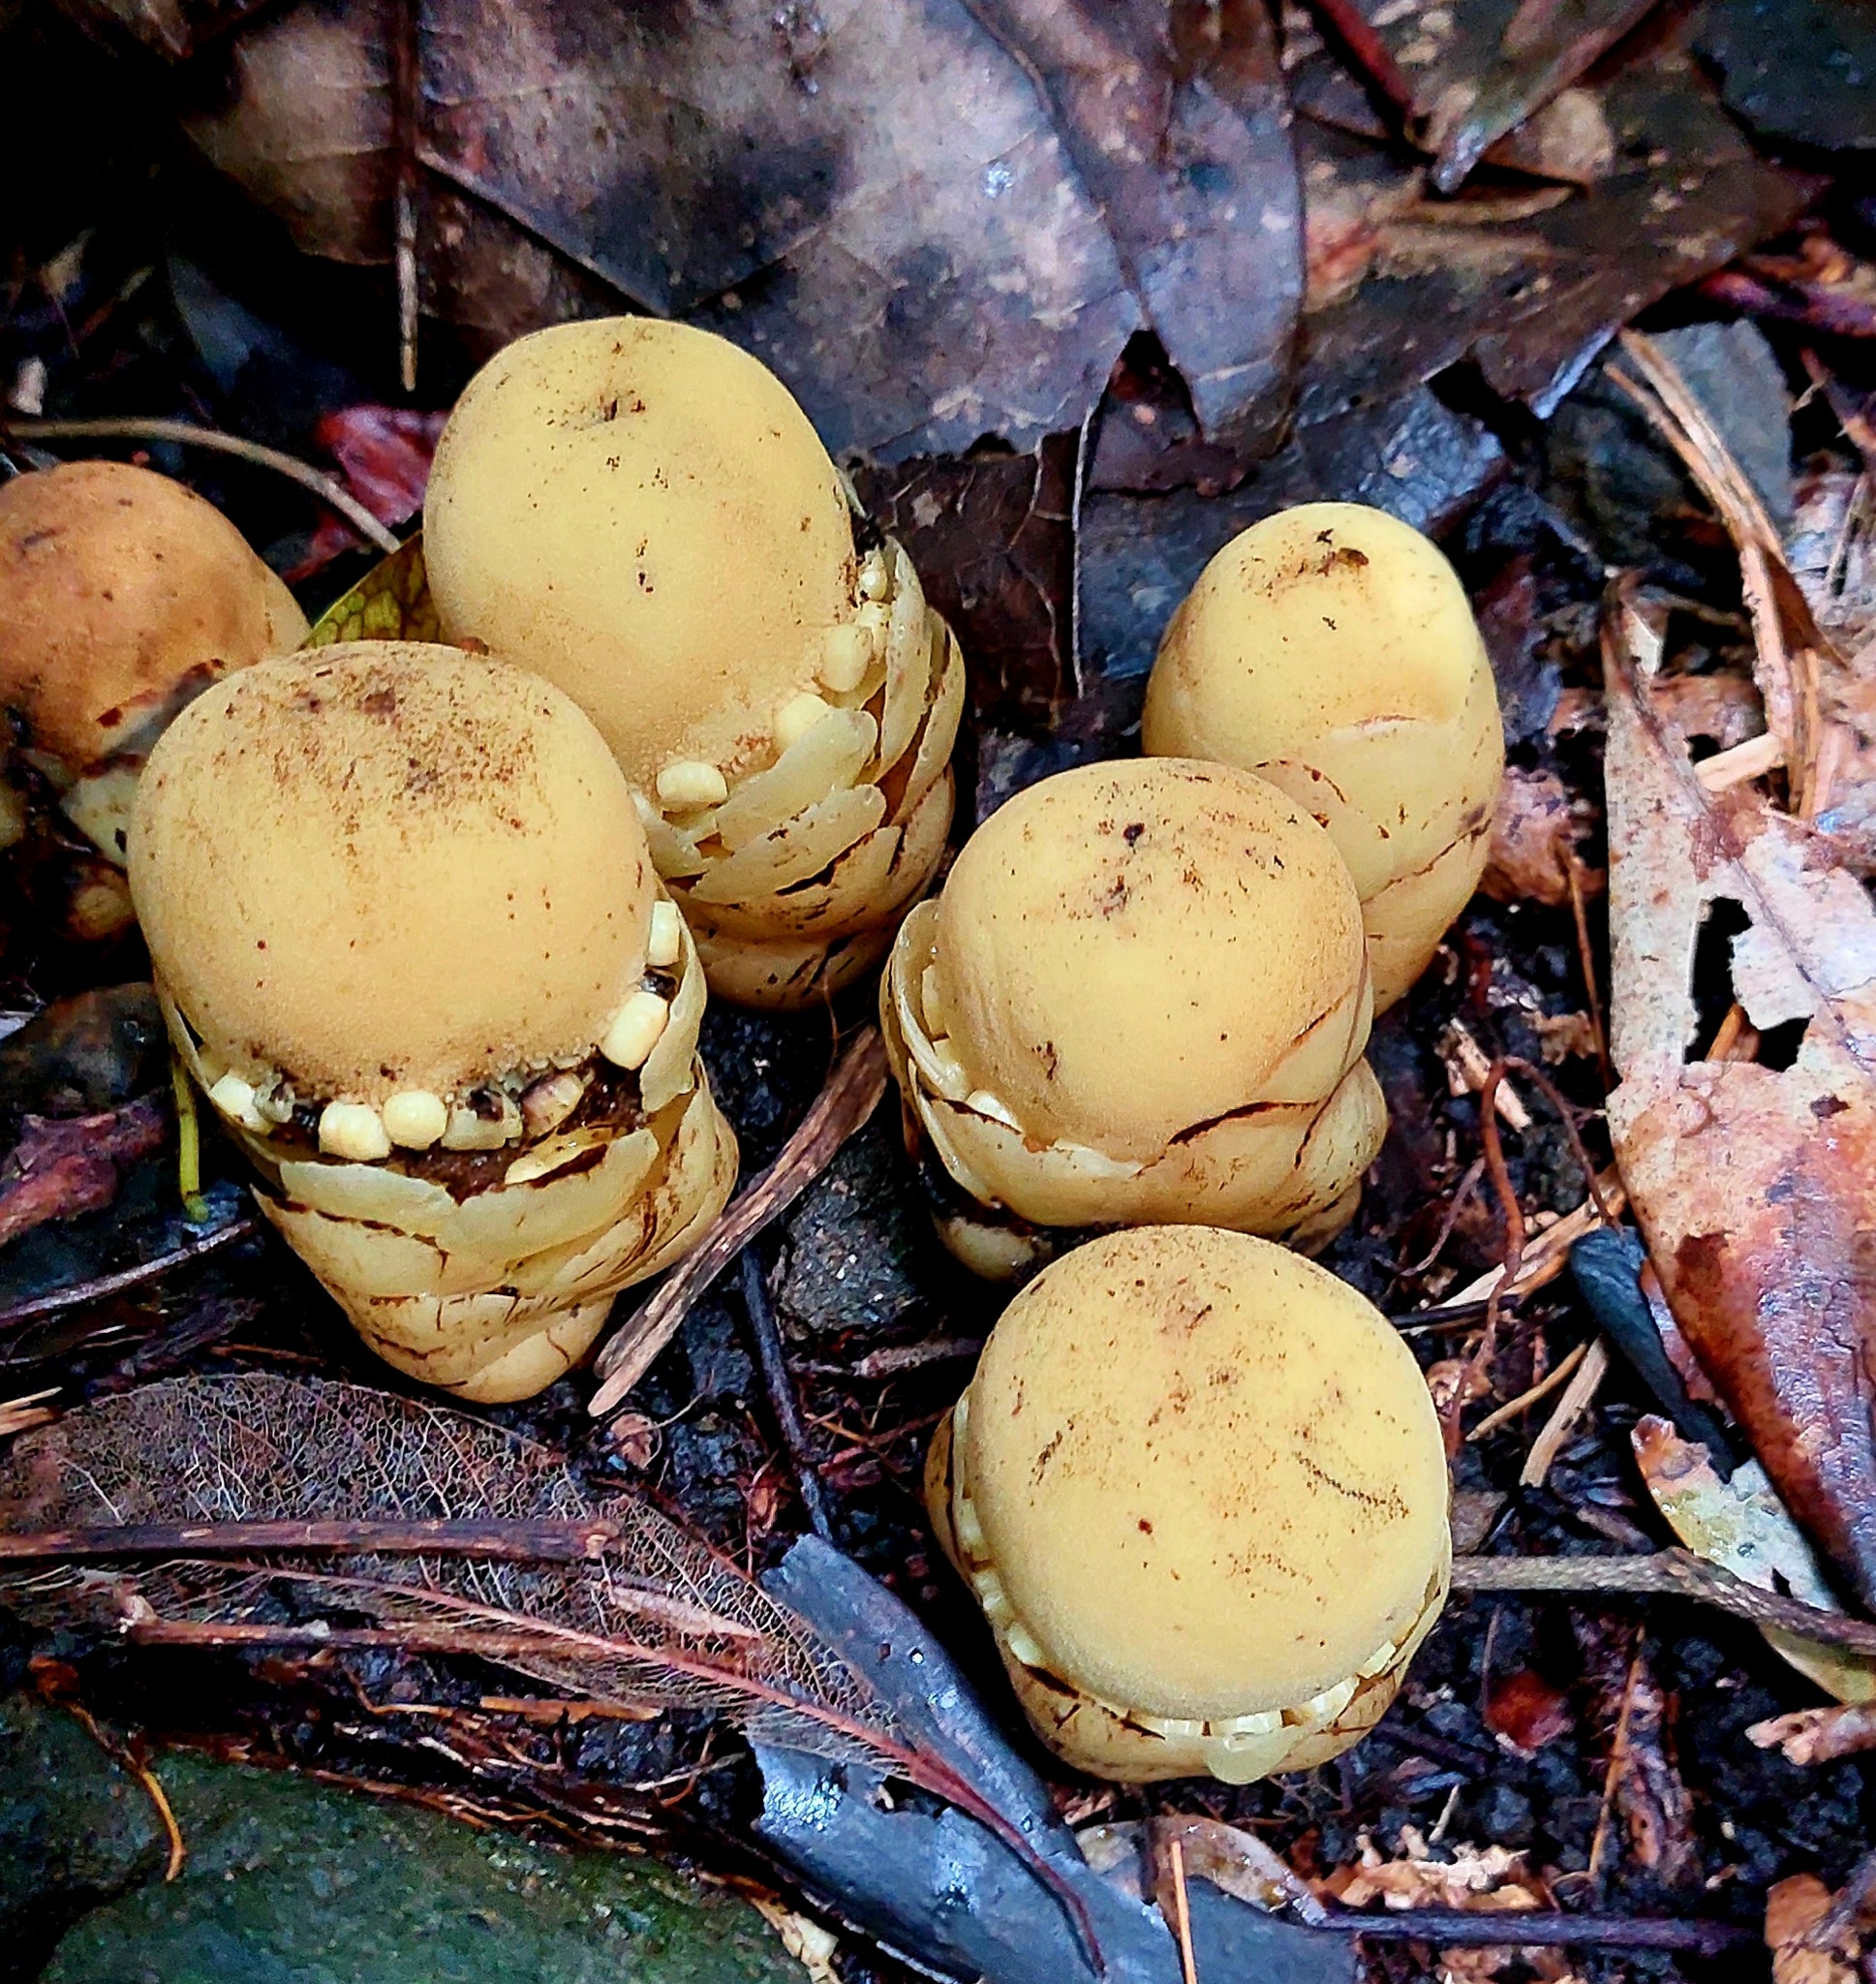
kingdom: Plantae
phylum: Tracheophyta
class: Magnoliopsida
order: Santalales
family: Balanophoraceae
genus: Balanophora
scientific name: Balanophora fungosa
